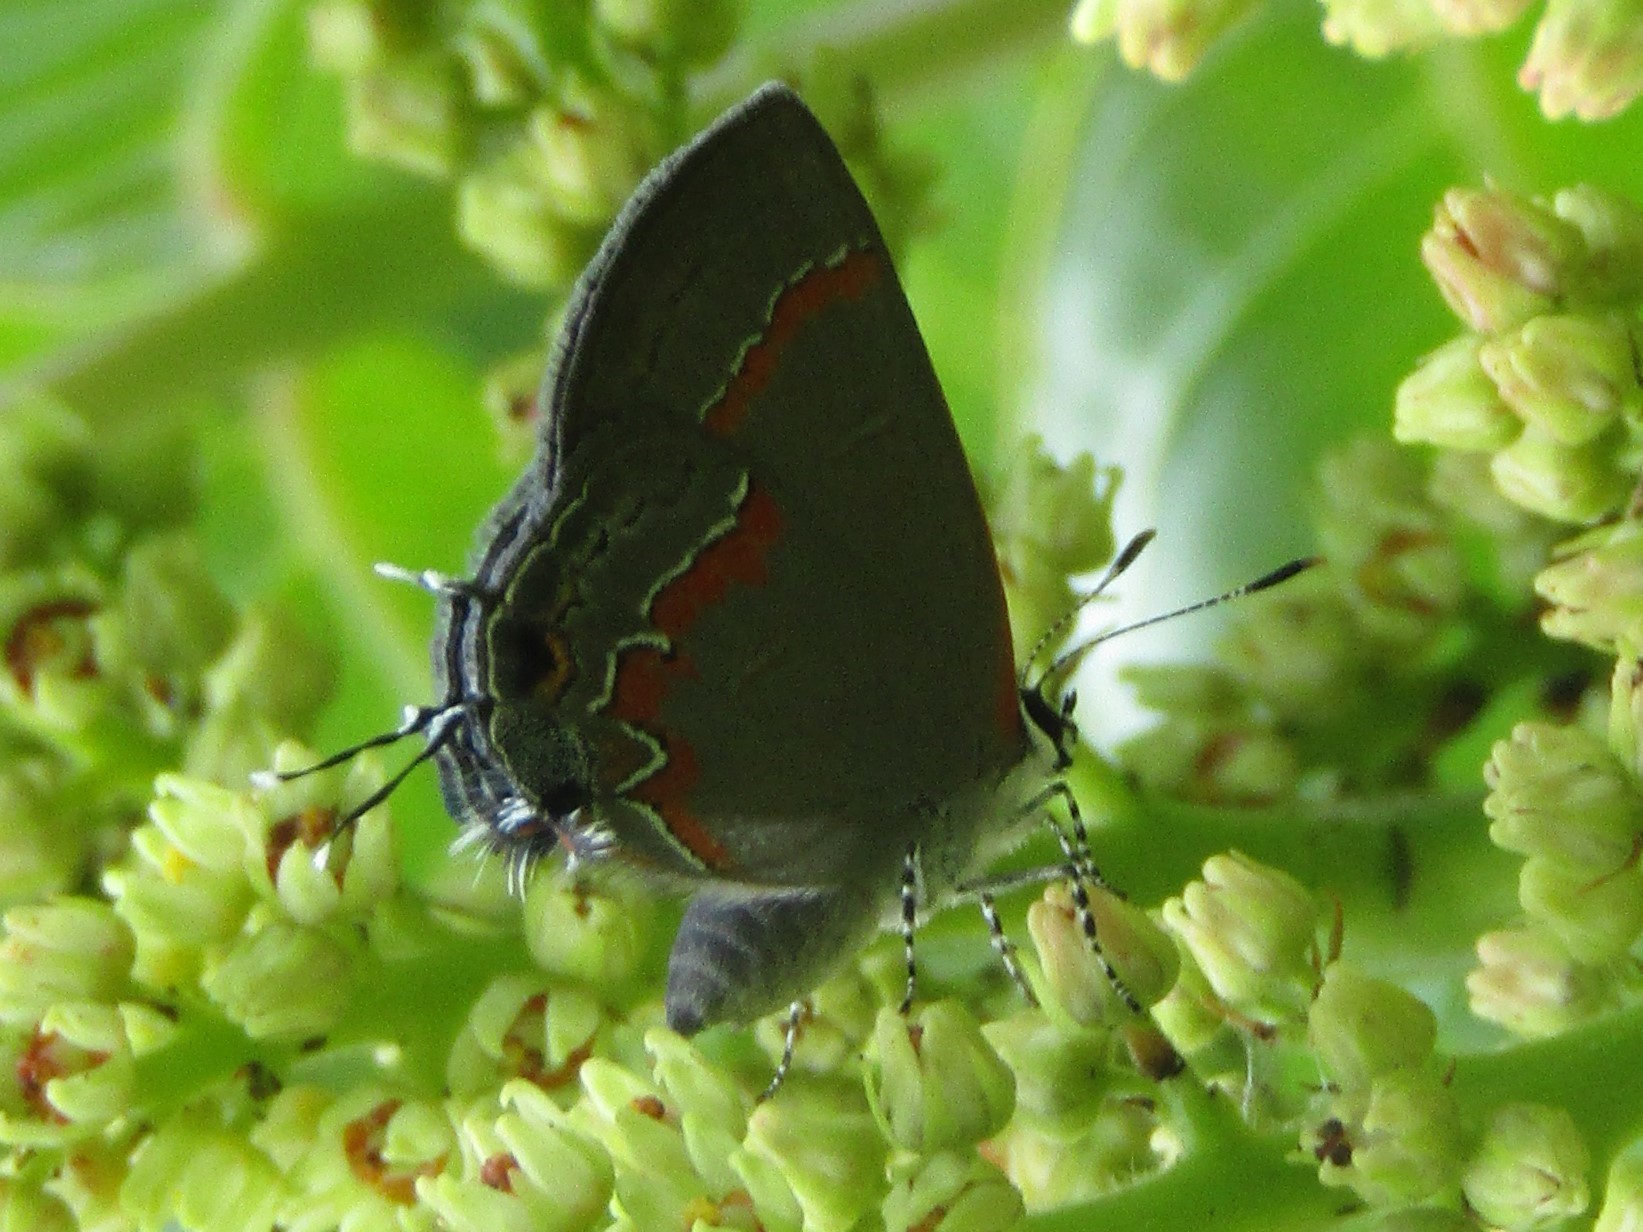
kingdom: Animalia
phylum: Arthropoda
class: Insecta
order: Lepidoptera
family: Lycaenidae
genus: Calycopis
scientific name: Calycopis cecrops
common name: Red-banded hairstreak
